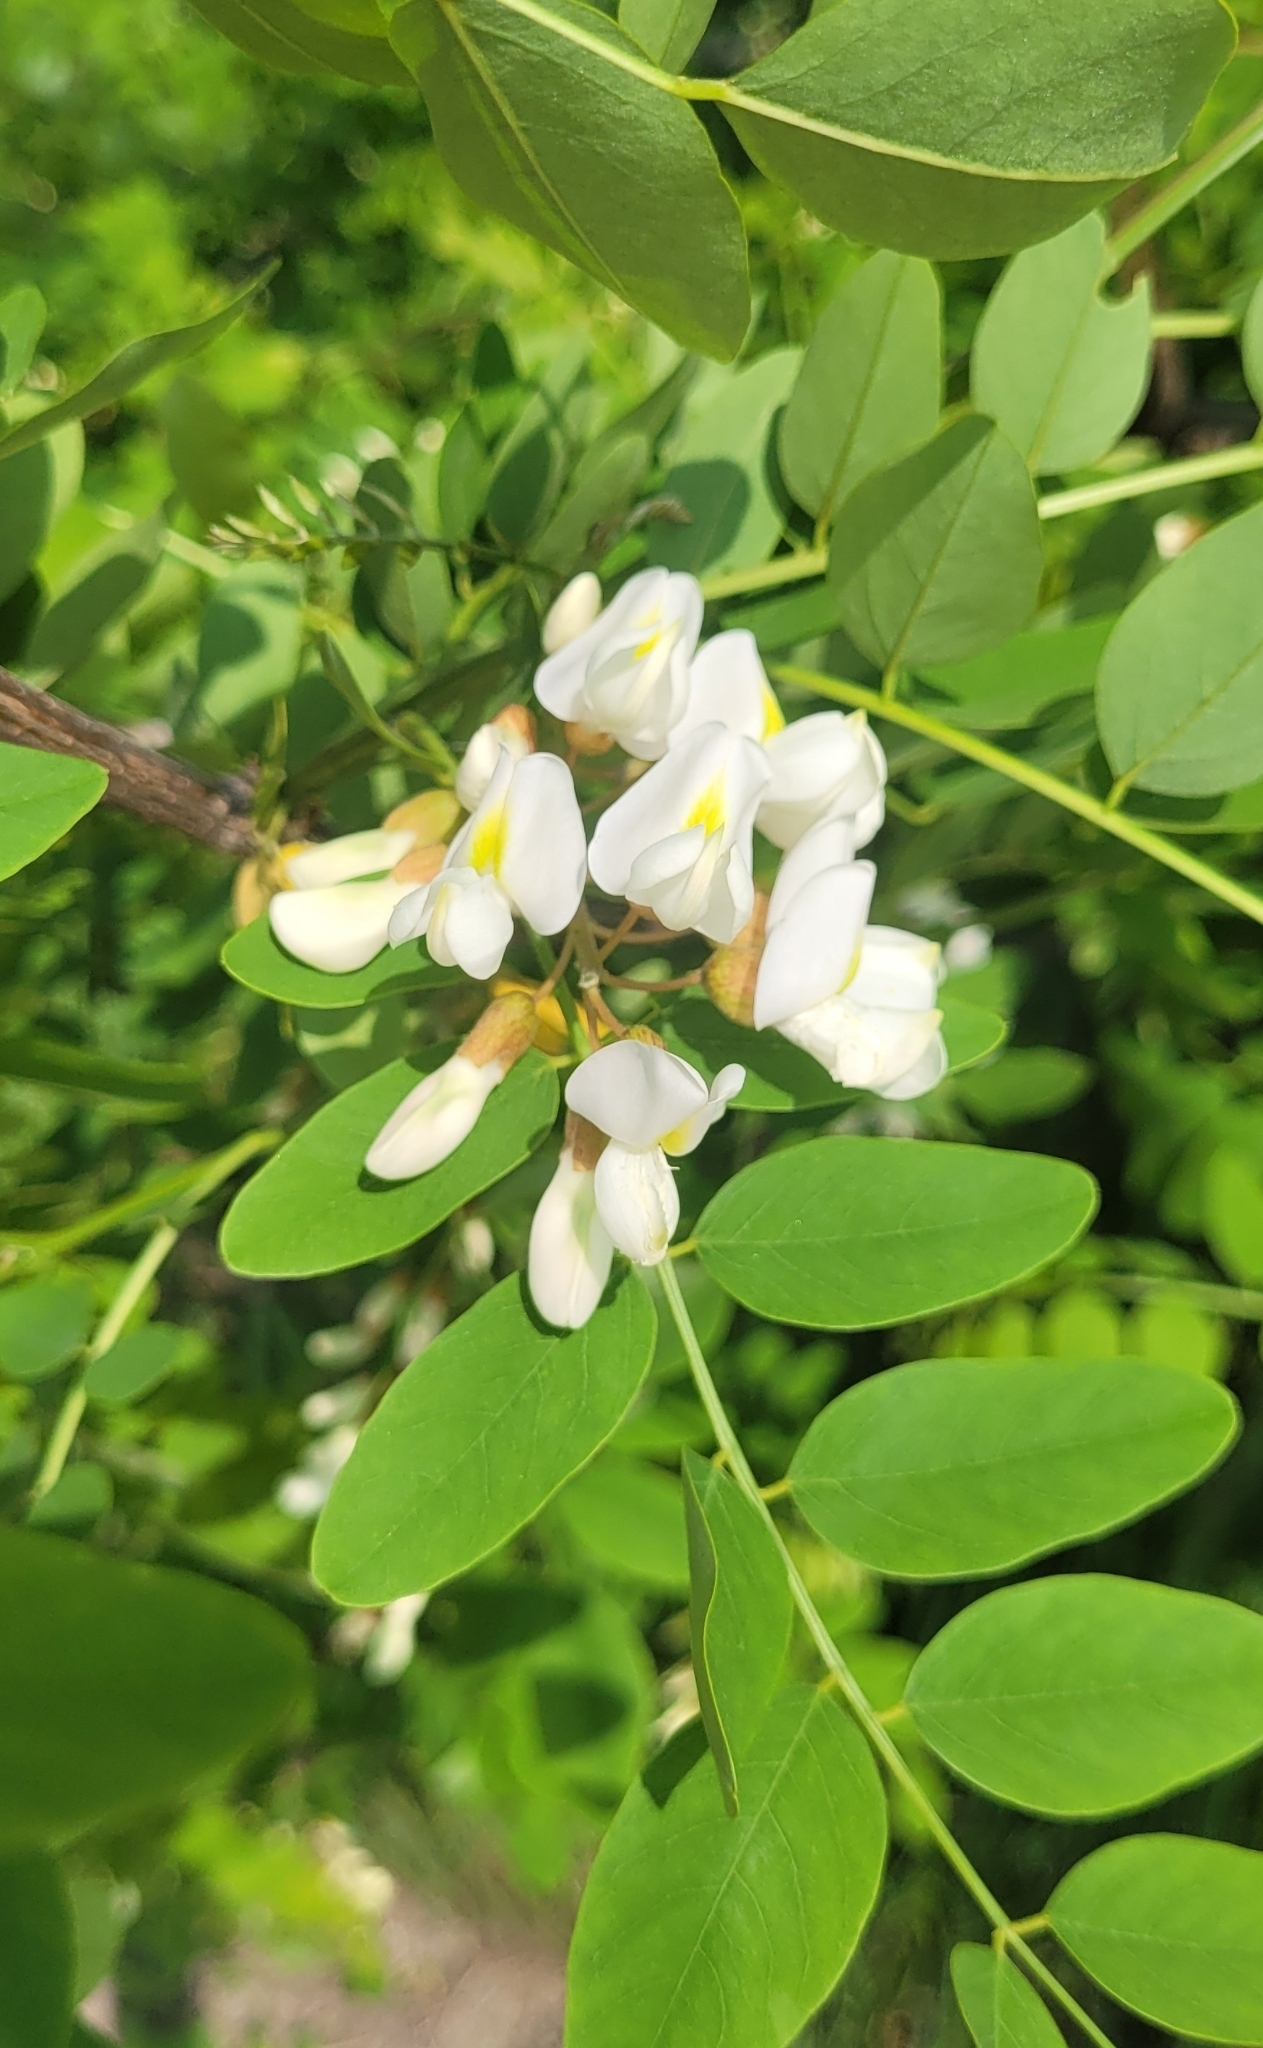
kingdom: Plantae
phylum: Tracheophyta
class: Magnoliopsida
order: Fabales
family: Fabaceae
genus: Robinia
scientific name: Robinia pseudoacacia
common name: Black locust
